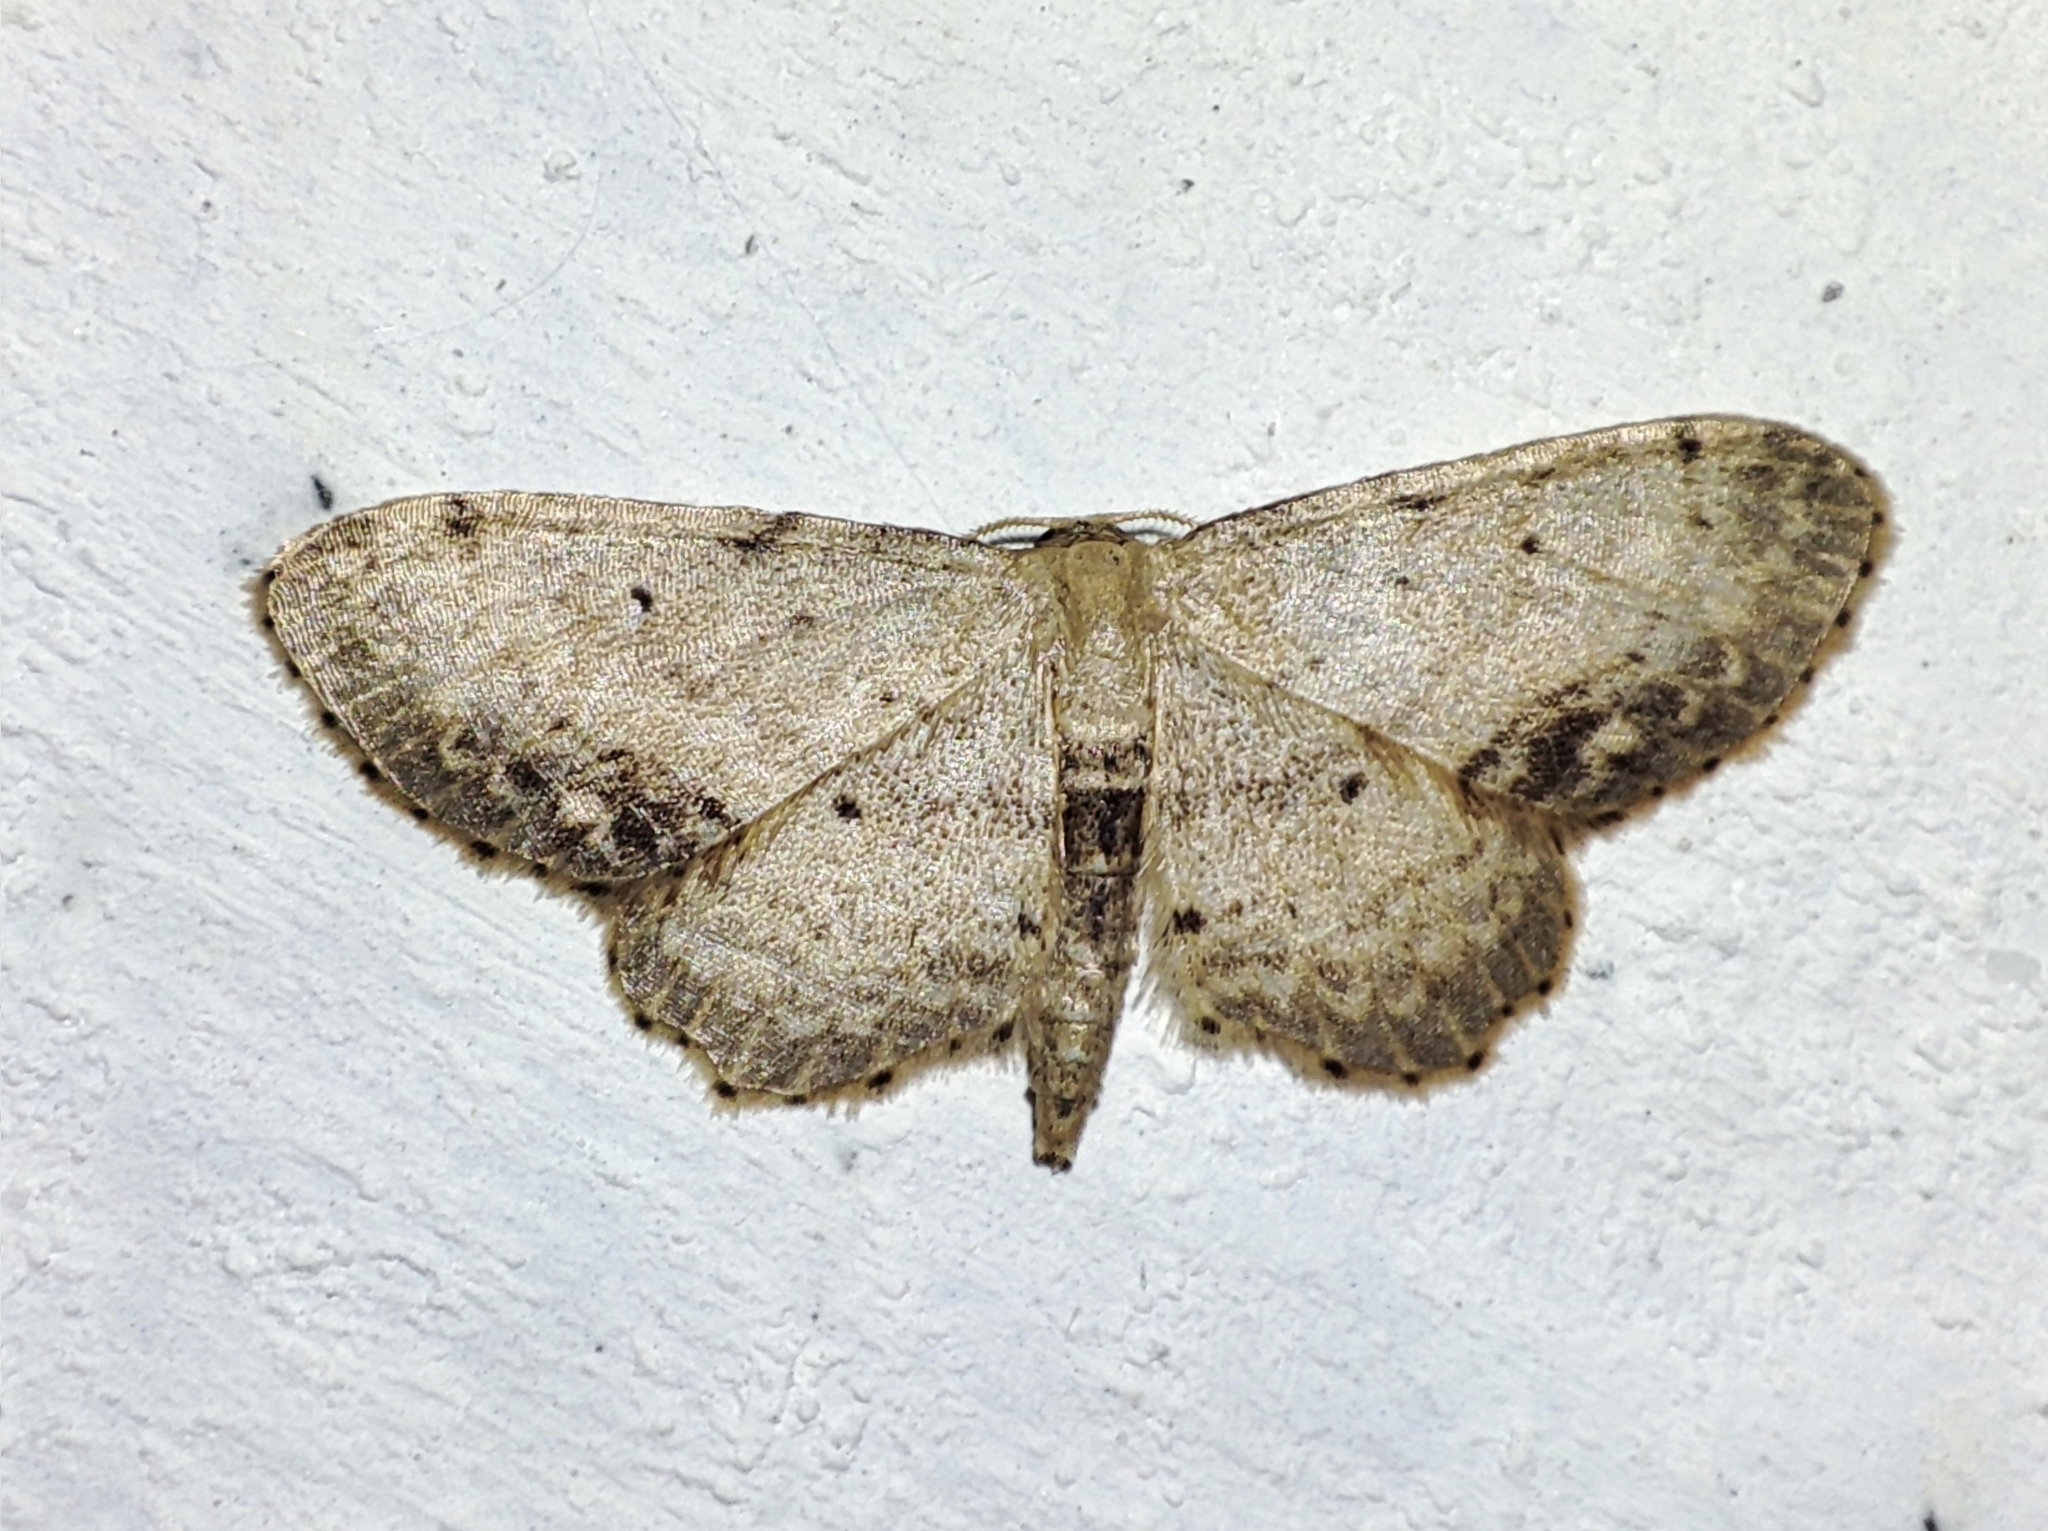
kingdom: Animalia
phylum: Arthropoda
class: Insecta
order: Lepidoptera
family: Geometridae
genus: Idaea
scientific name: Idaea dimidiata
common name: Single-dotted wave
